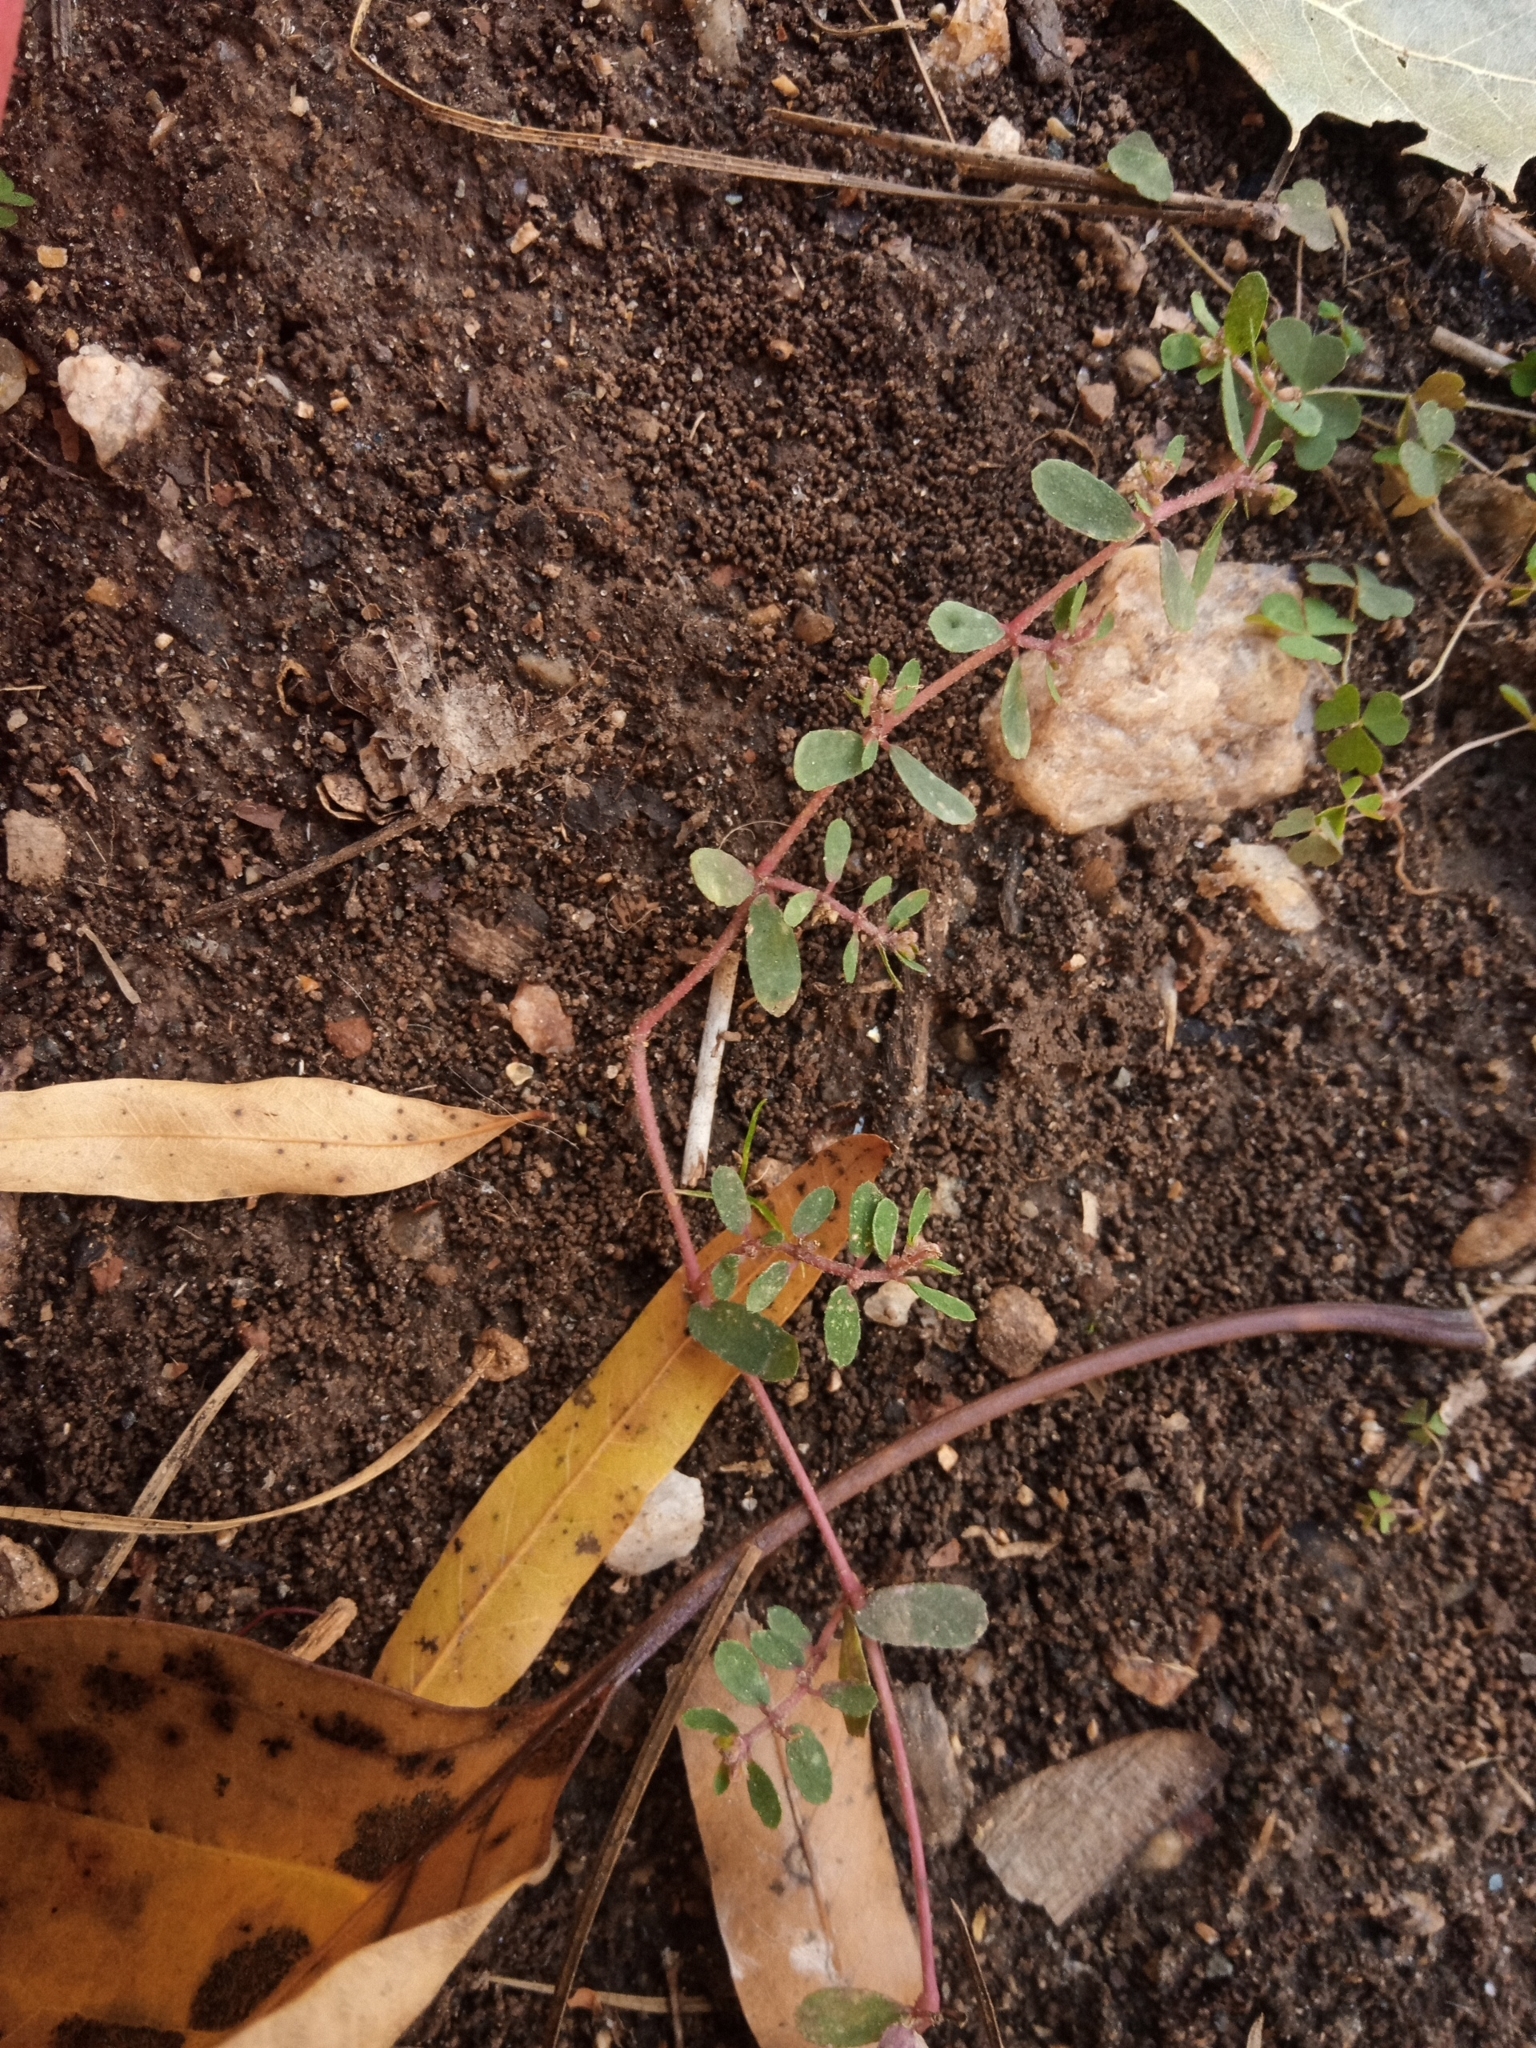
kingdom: Plantae
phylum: Tracheophyta
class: Magnoliopsida
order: Malpighiales
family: Euphorbiaceae
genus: Euphorbia
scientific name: Euphorbia maculata
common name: Spotted spurge
